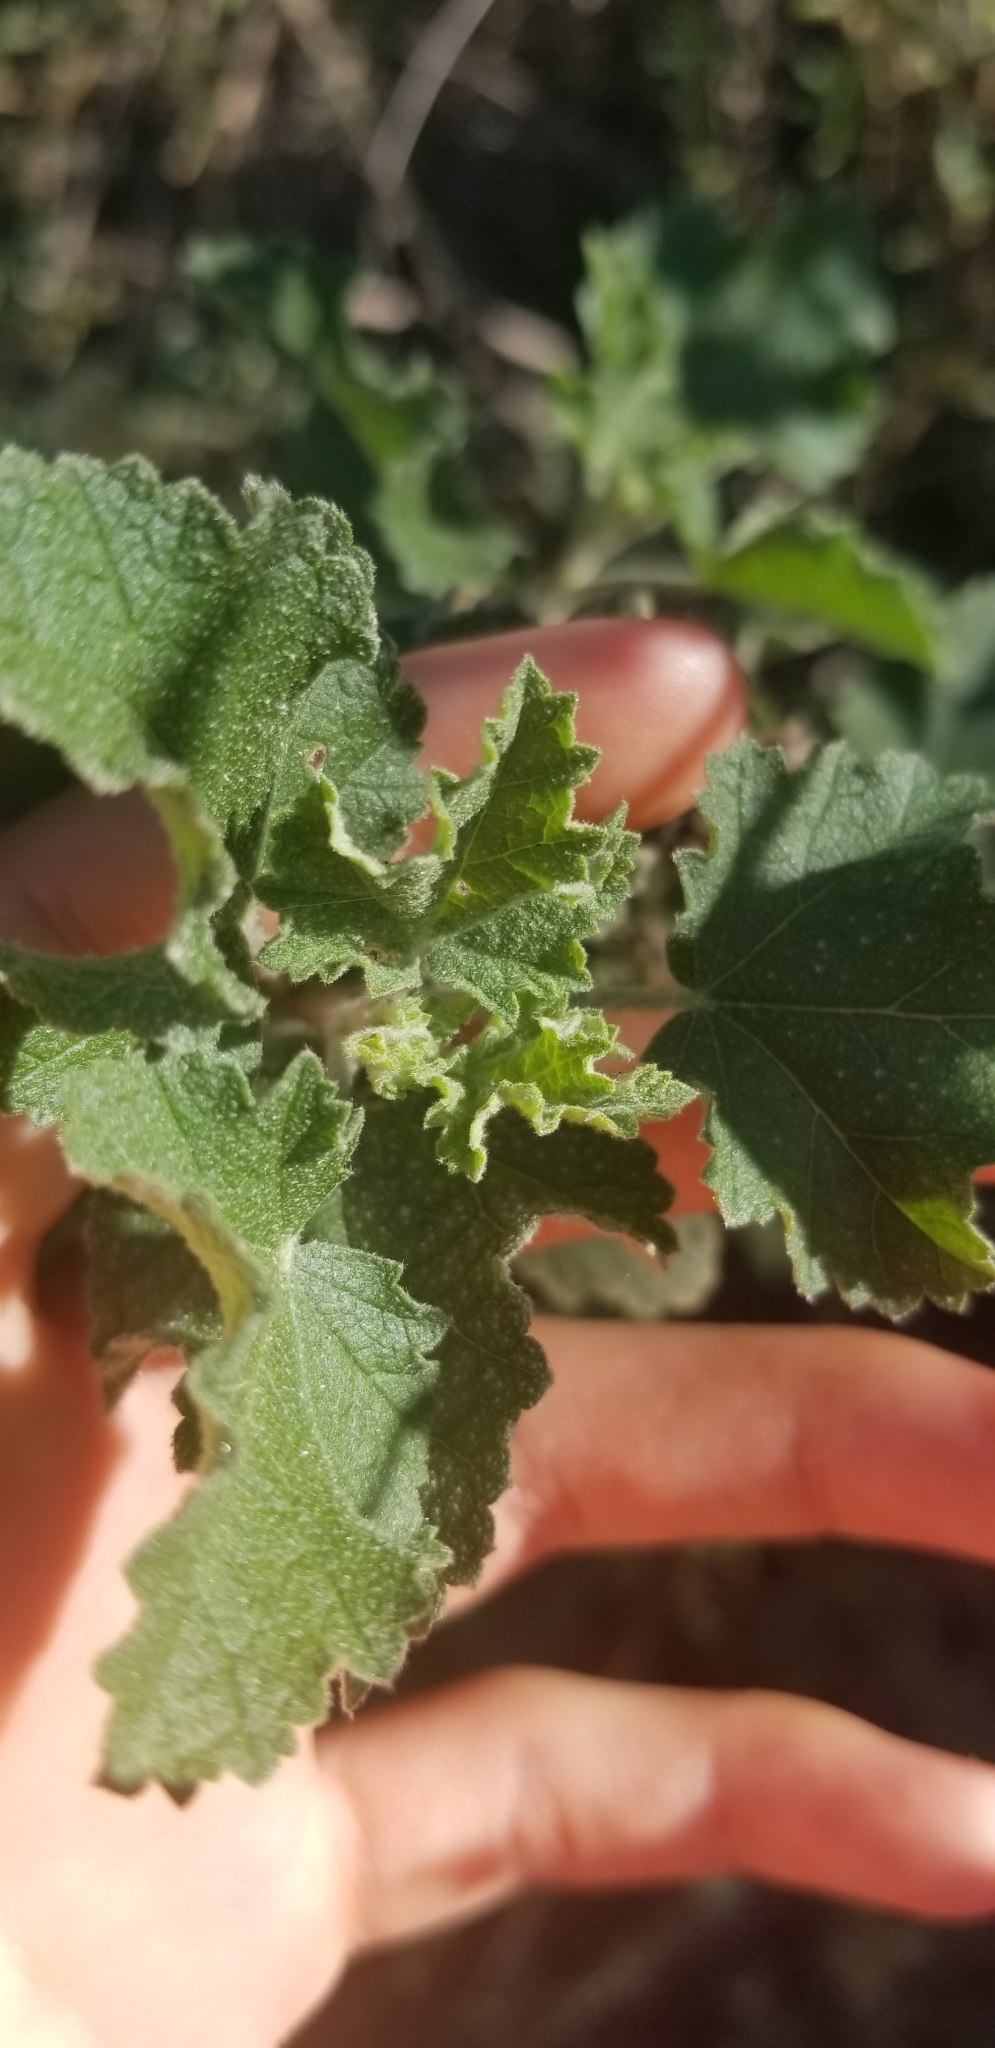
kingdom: Plantae
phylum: Tracheophyta
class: Magnoliopsida
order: Malvales
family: Malvaceae
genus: Malacothamnus
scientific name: Malacothamnus fasciculatus
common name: Sant cruz island bush-mallow
